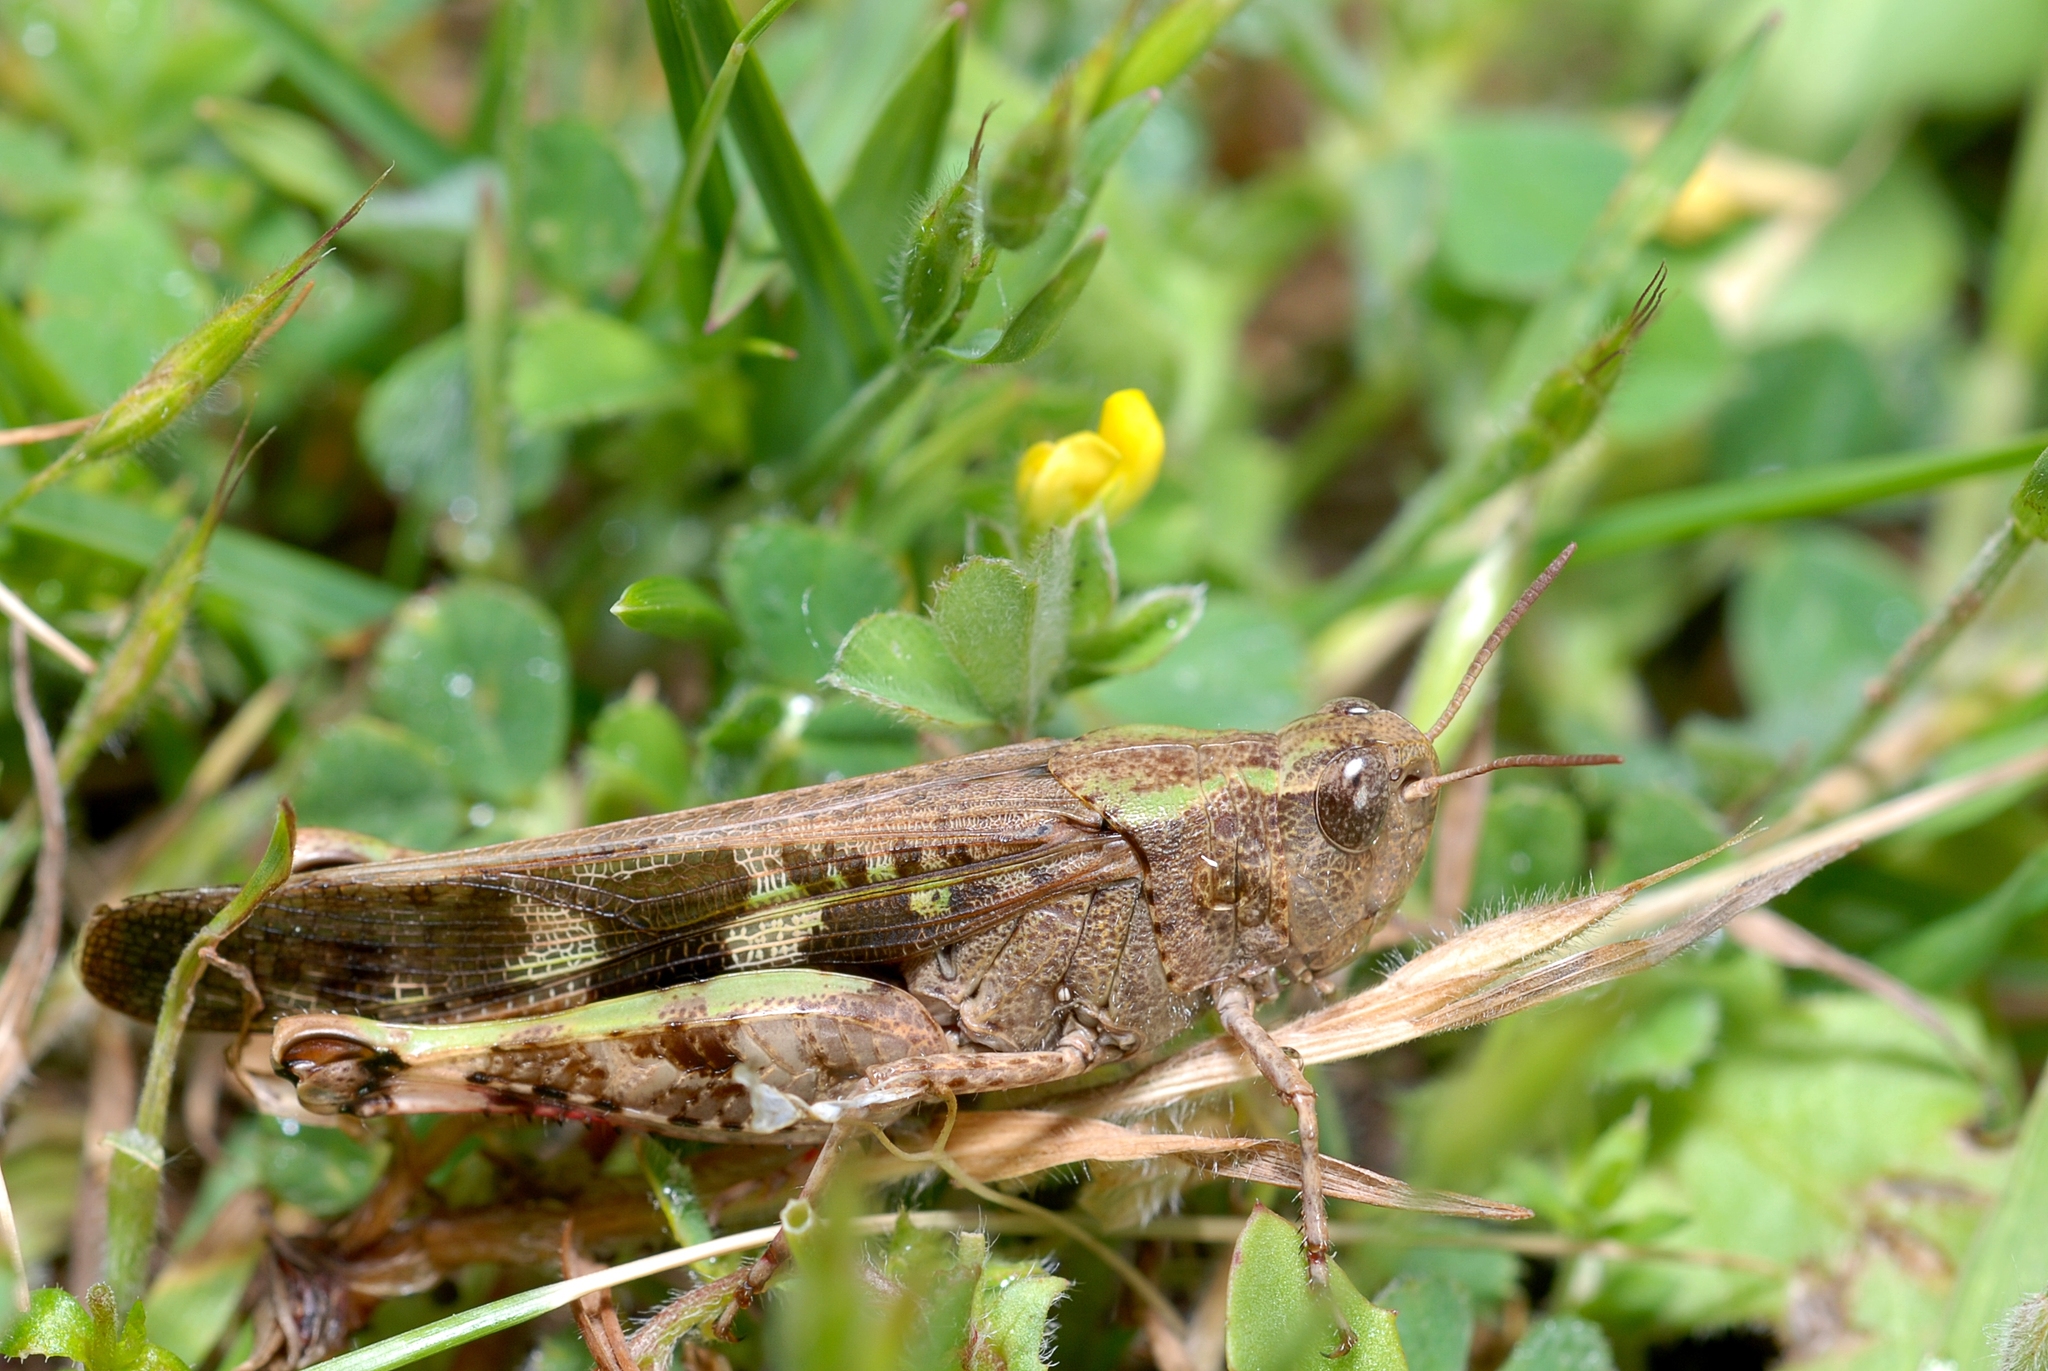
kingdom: Animalia
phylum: Arthropoda
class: Insecta
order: Orthoptera
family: Acrididae
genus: Aiolopus
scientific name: Aiolopus strepens
